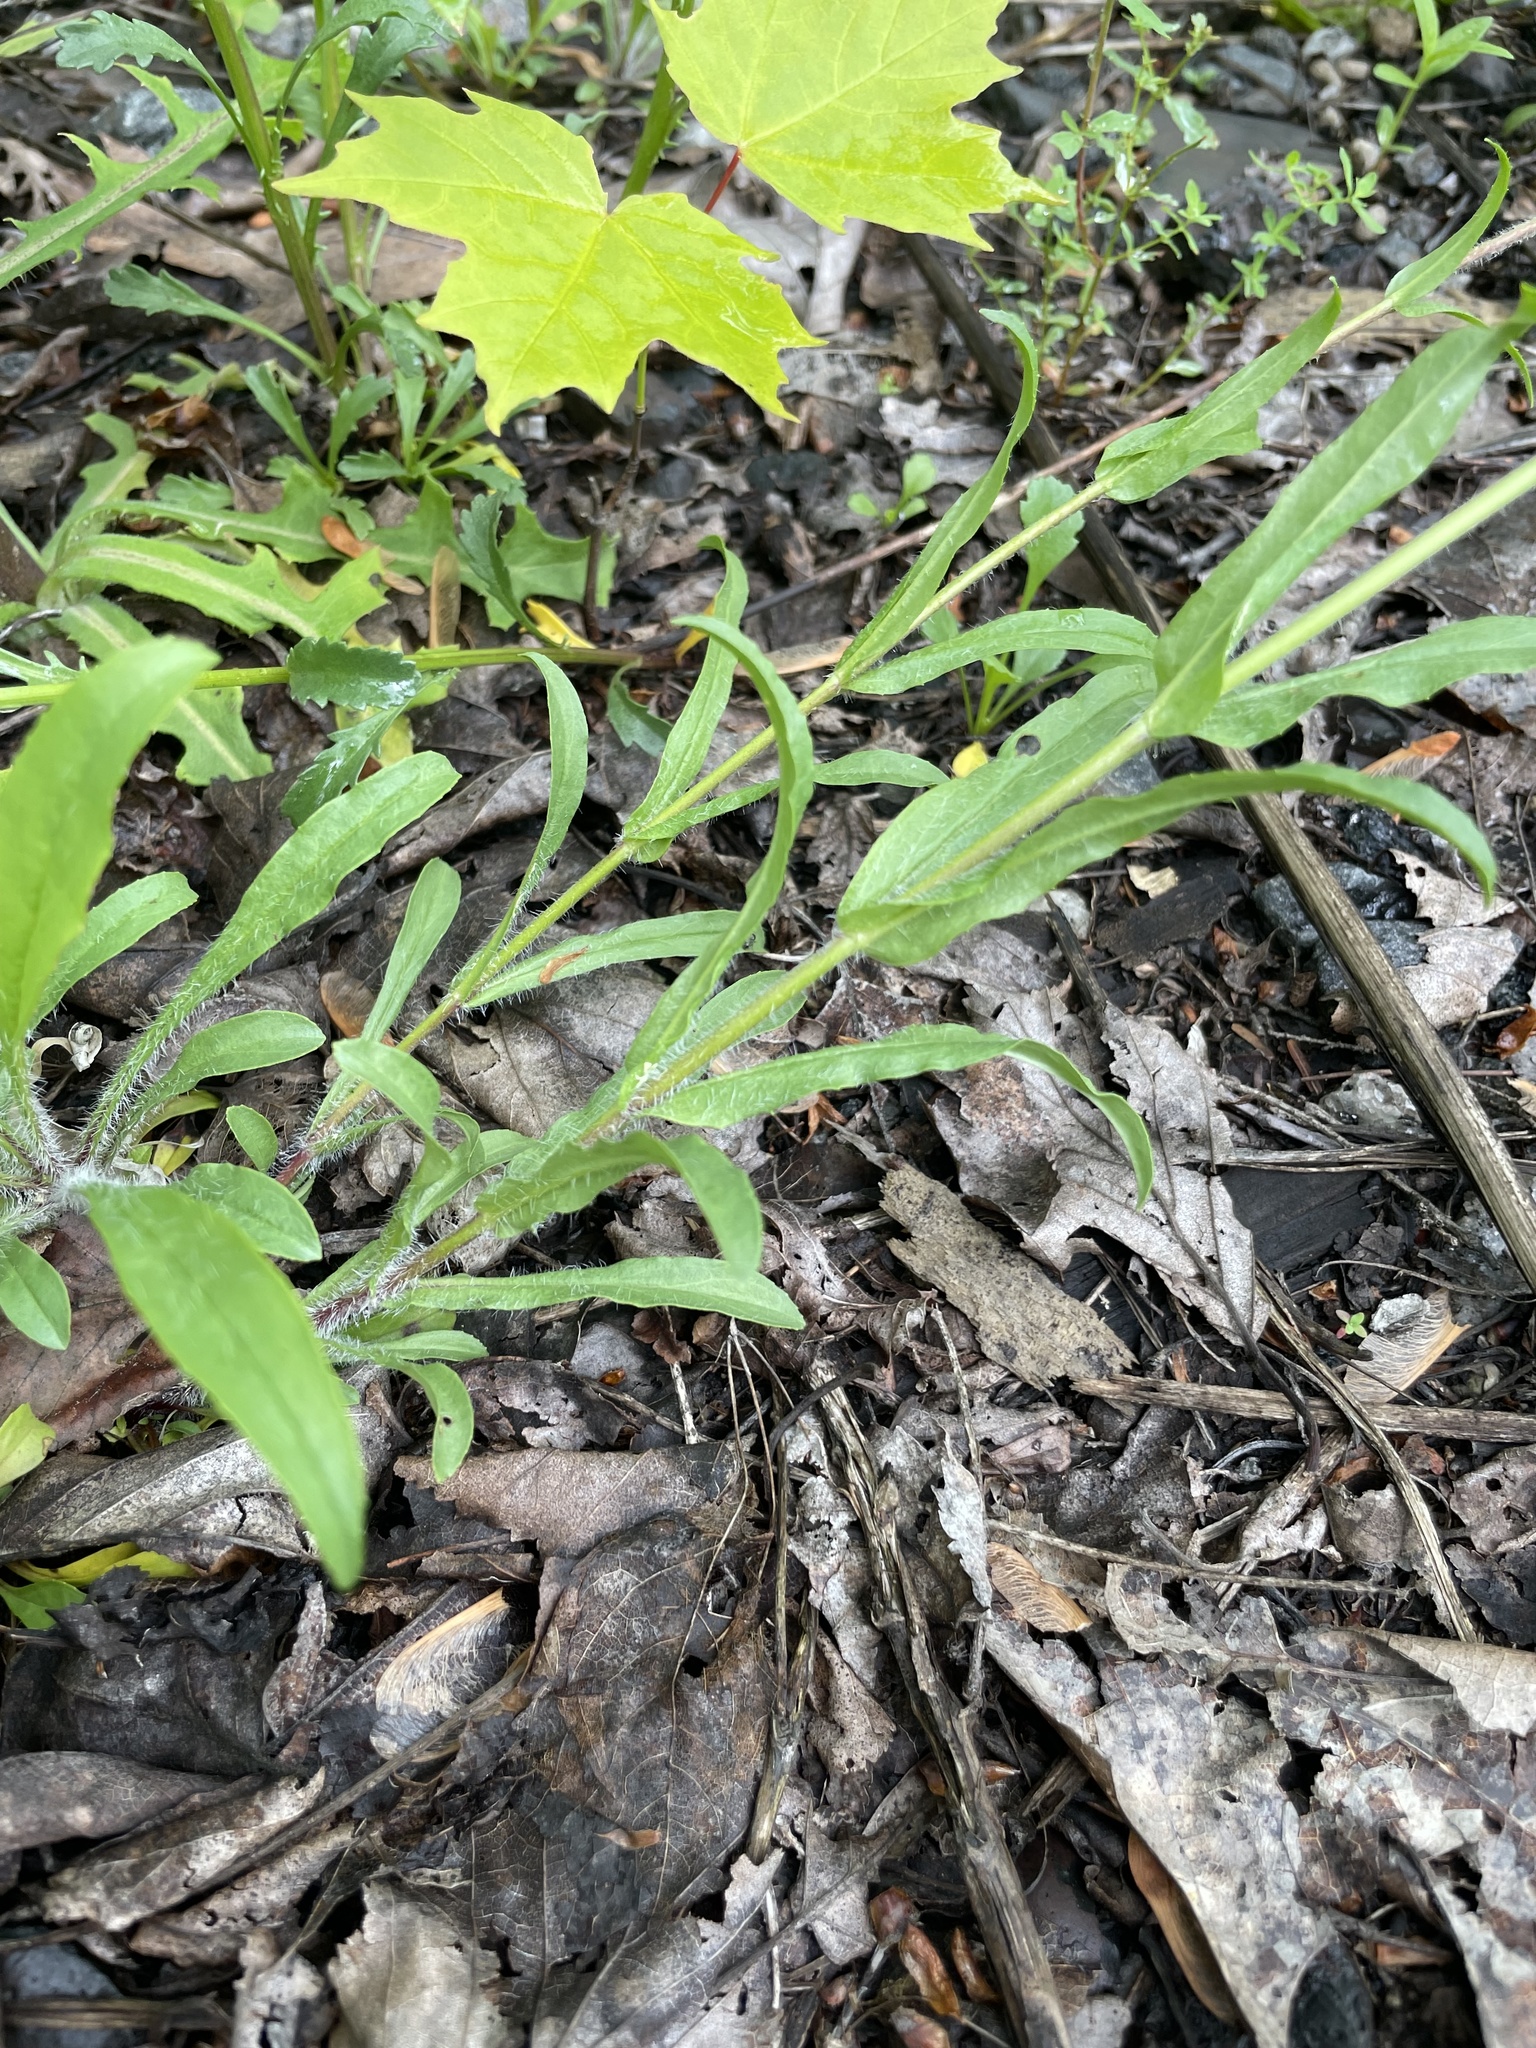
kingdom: Plantae
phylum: Tracheophyta
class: Magnoliopsida
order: Lamiales
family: Plantaginaceae
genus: Penstemon
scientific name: Penstemon hirsutus
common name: Hairy beardtongue
